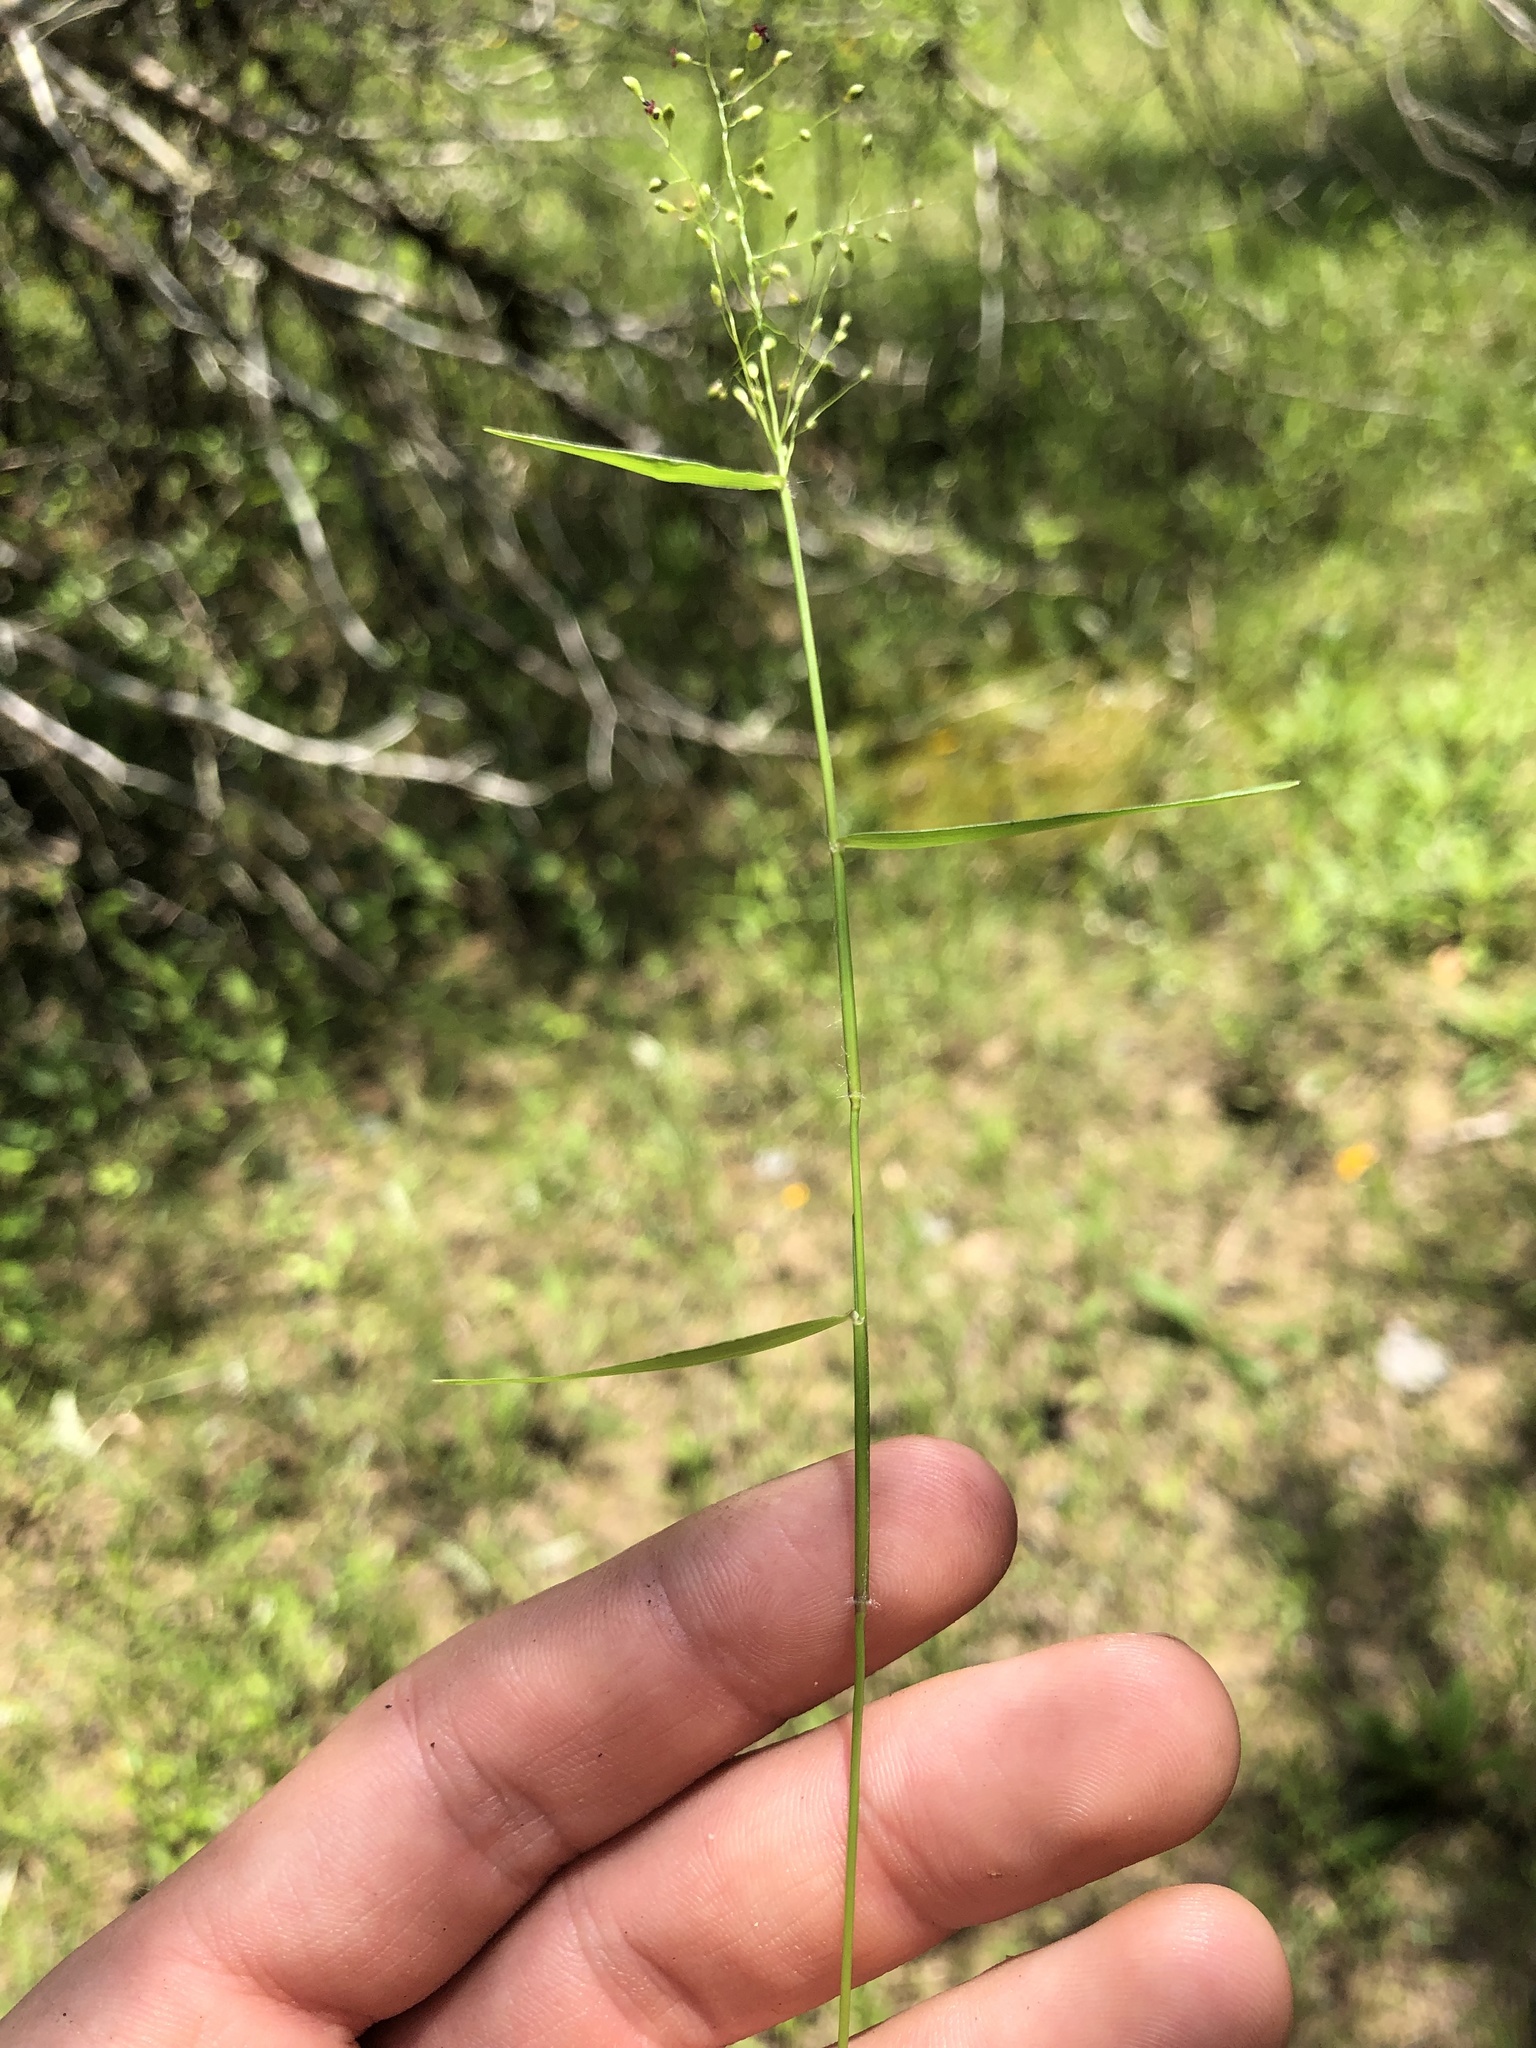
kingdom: Plantae
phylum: Tracheophyta
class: Liliopsida
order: Poales
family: Poaceae
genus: Dichanthelium
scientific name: Dichanthelium dichotomum
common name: Cypress panicgrass
